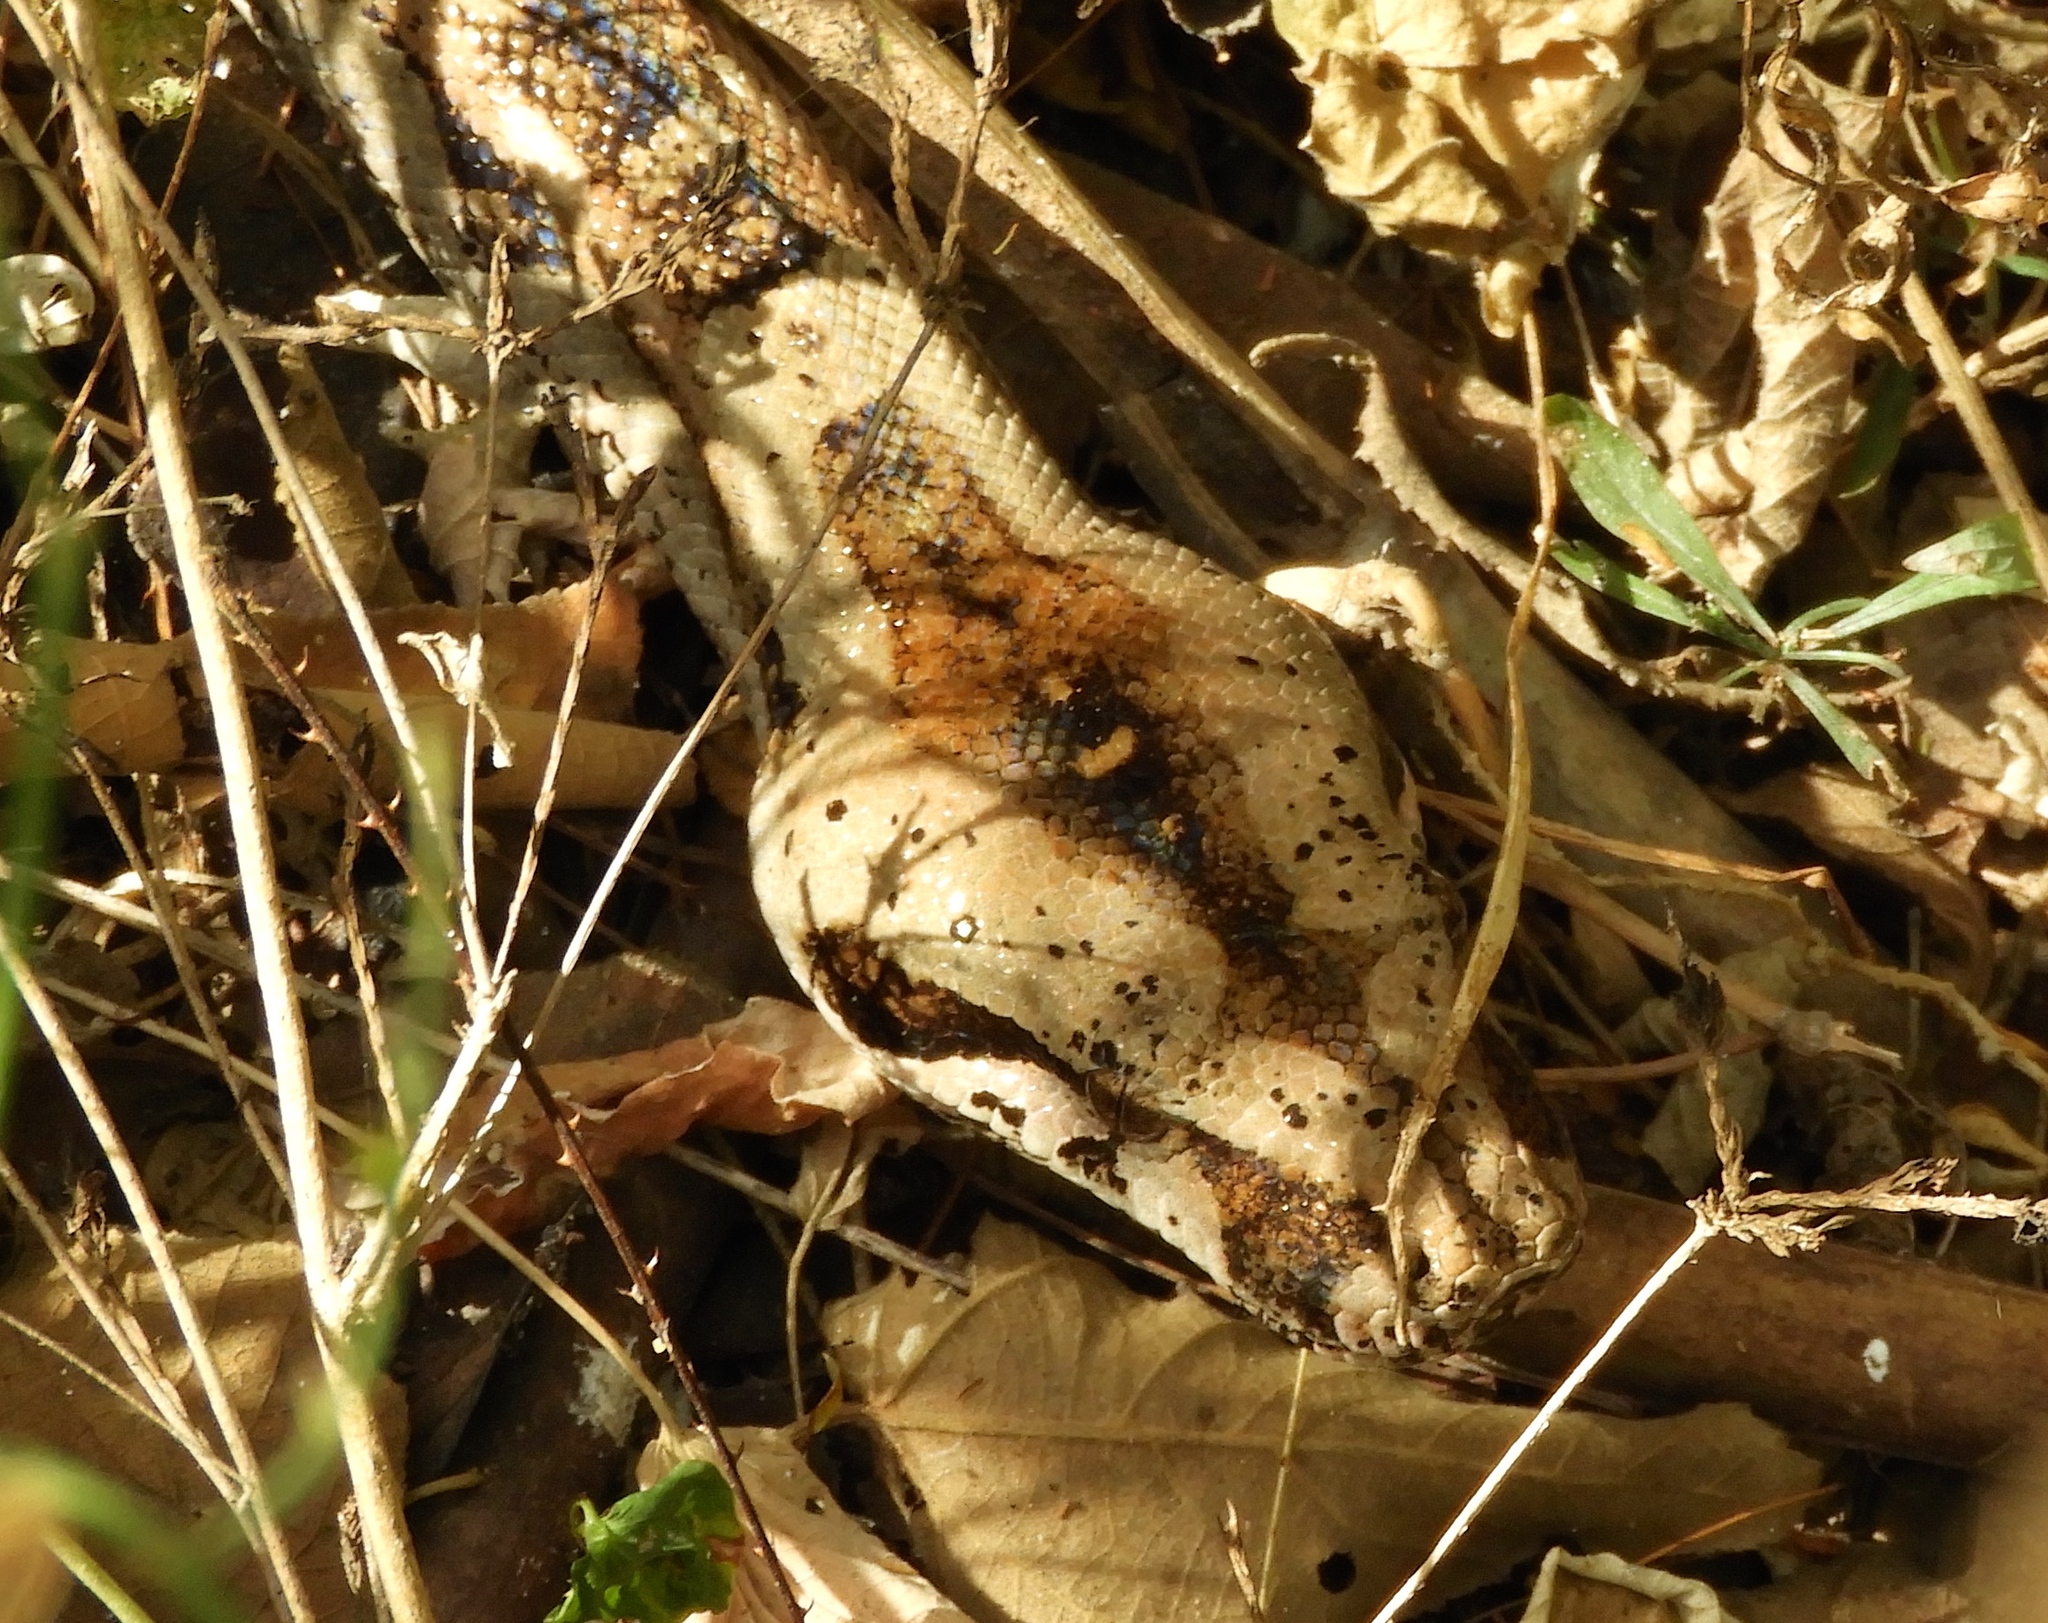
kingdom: Animalia
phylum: Chordata
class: Squamata
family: Boidae
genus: Boa
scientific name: Boa
